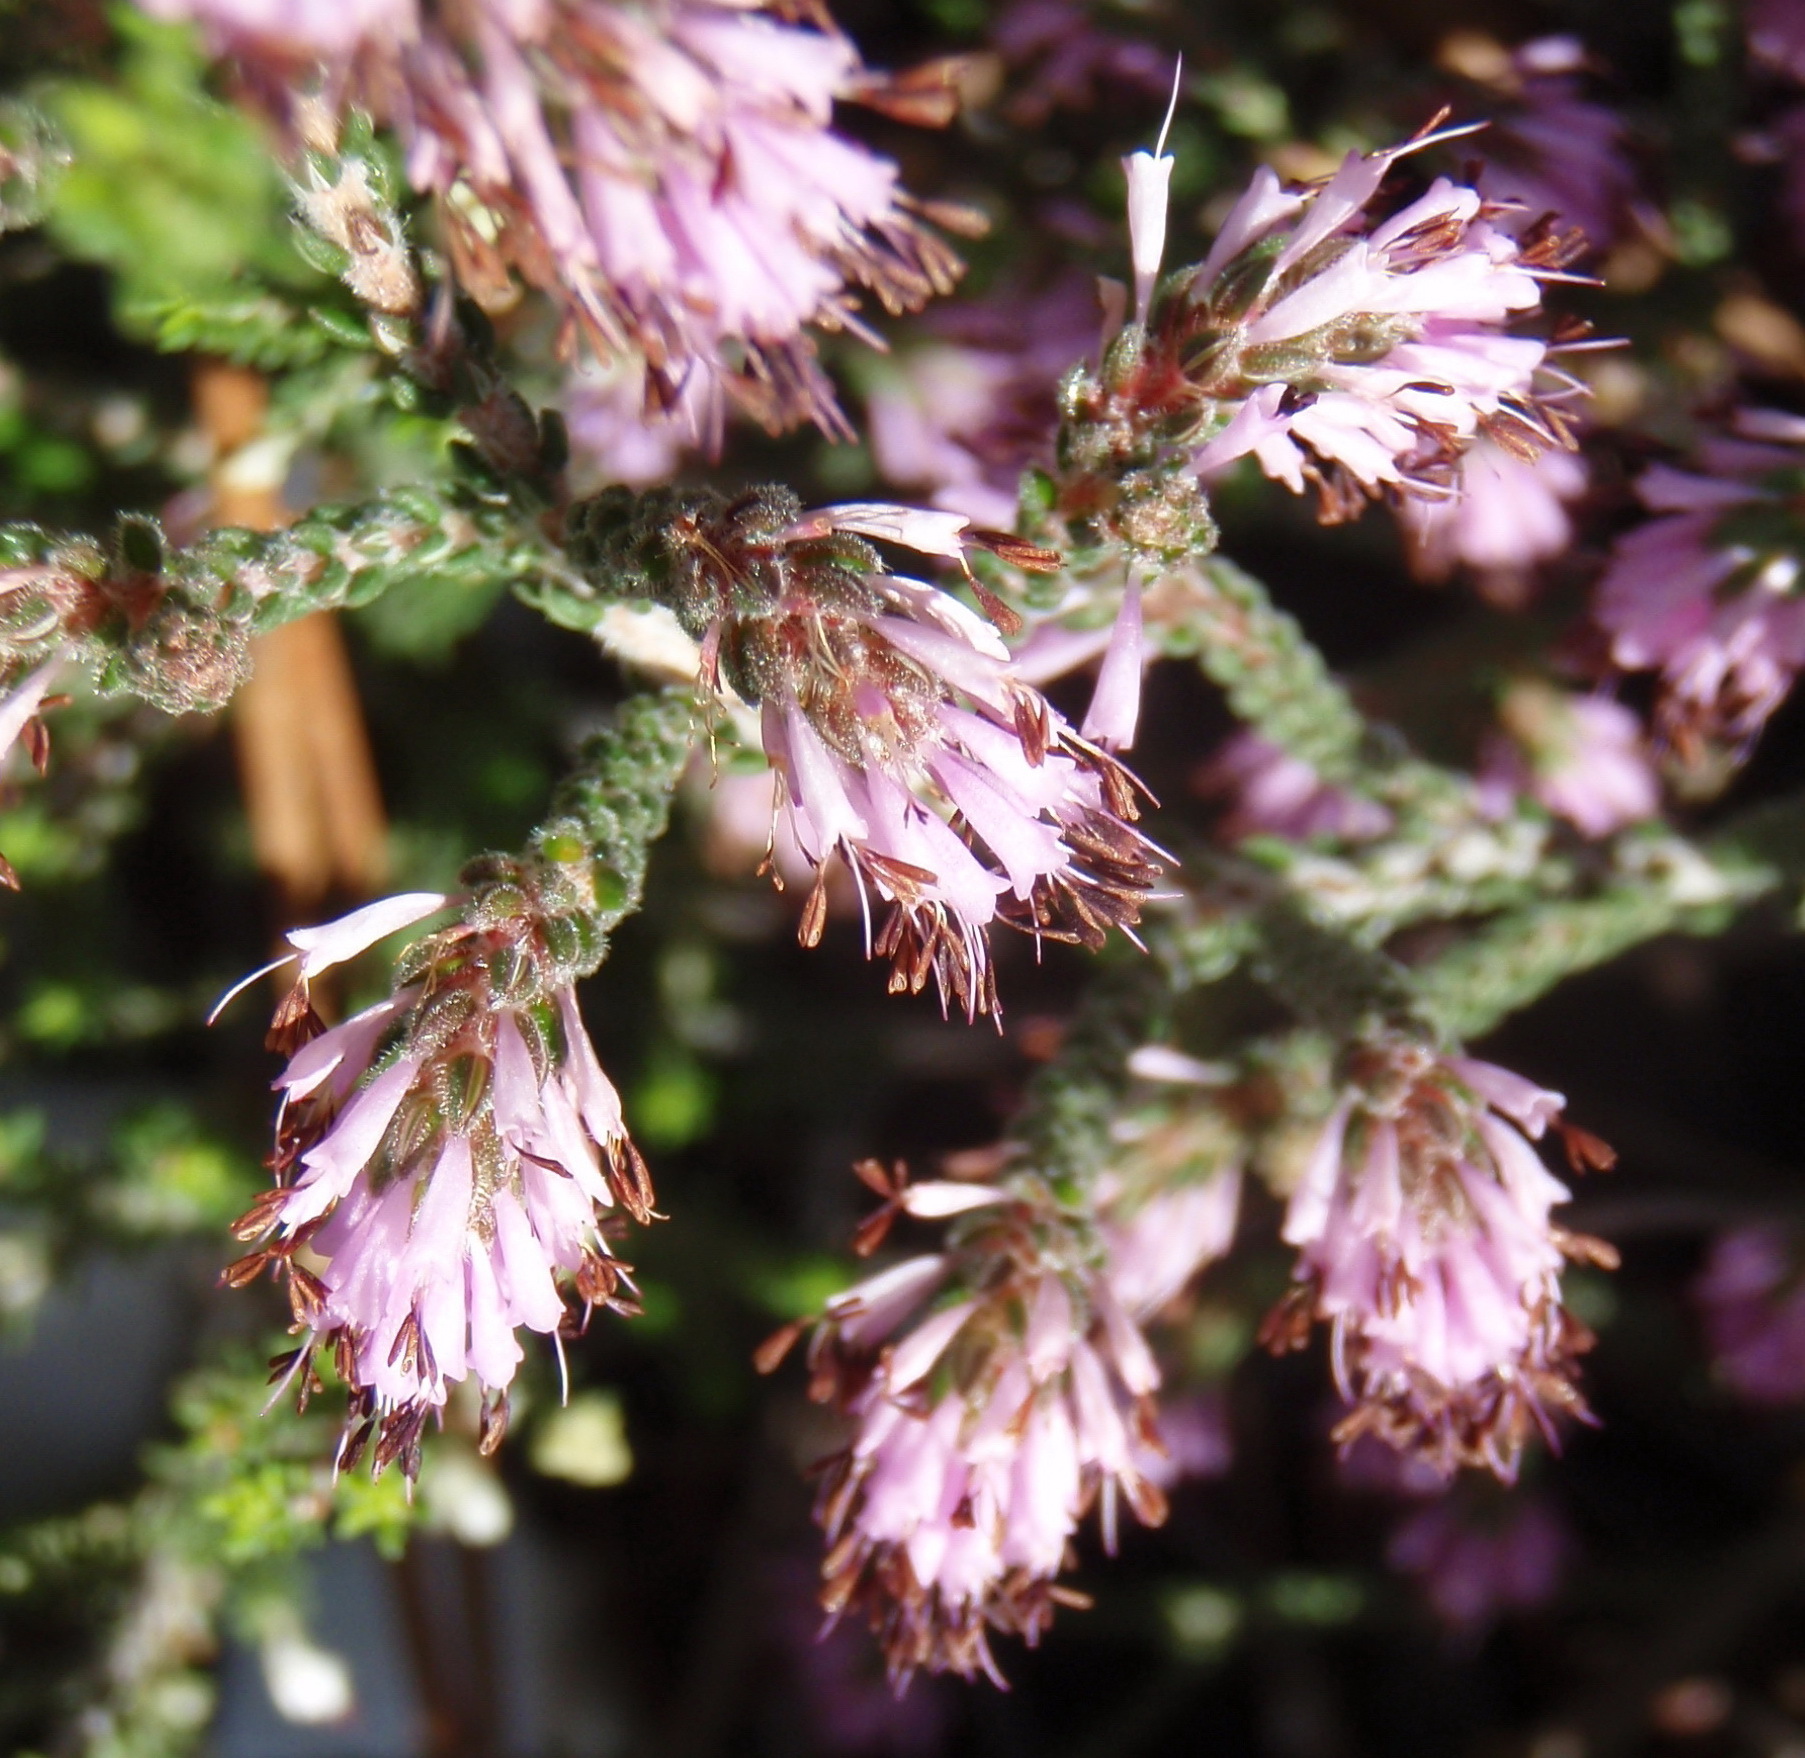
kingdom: Plantae
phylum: Tracheophyta
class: Magnoliopsida
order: Ericales
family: Ericaceae
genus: Erica
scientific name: Erica similis
